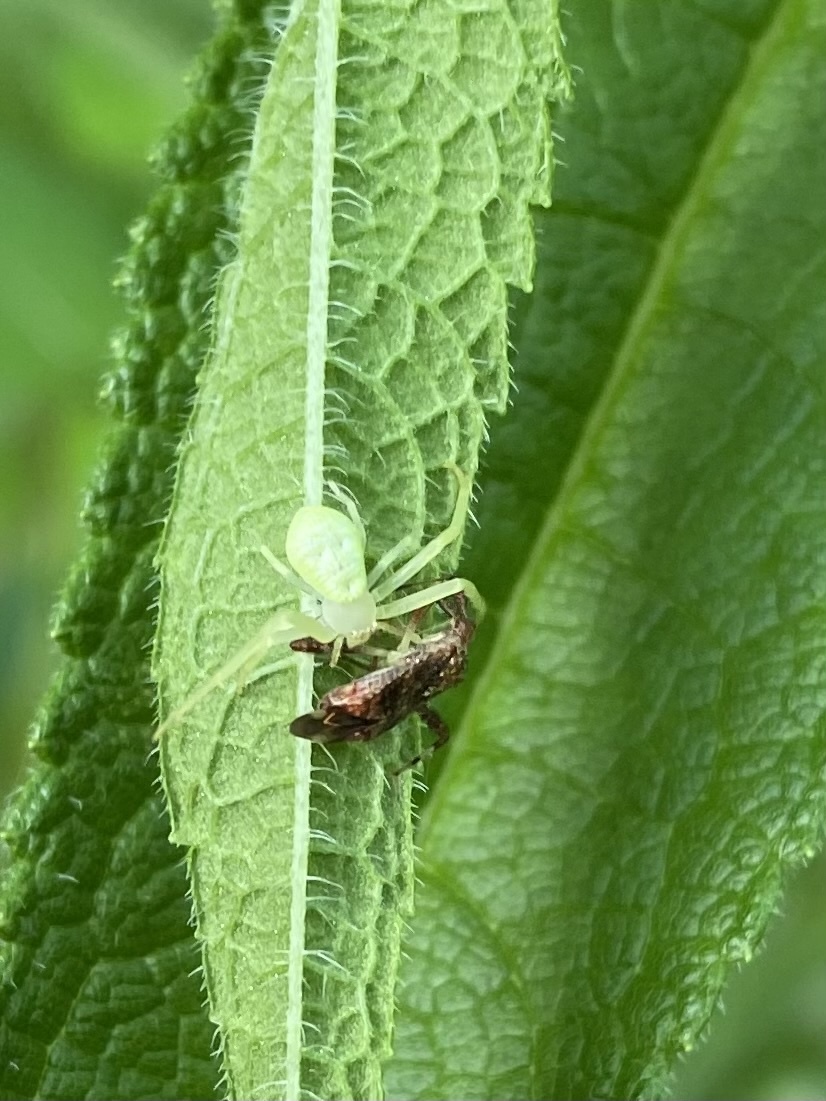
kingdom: Animalia
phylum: Arthropoda
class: Arachnida
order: Araneae
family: Thomisidae
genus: Misumessus
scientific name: Misumessus oblongus
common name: American green crab spider
